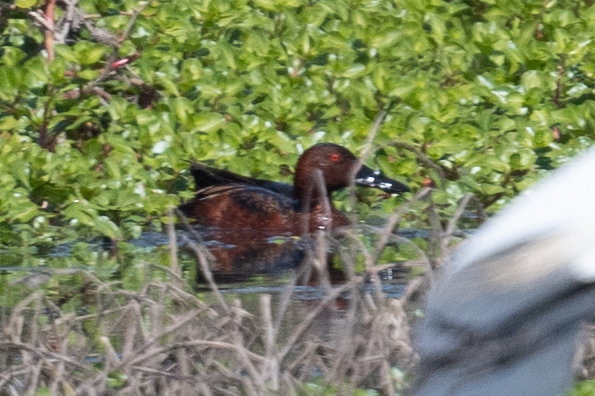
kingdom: Animalia
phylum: Chordata
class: Aves
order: Anseriformes
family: Anatidae
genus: Spatula
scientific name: Spatula cyanoptera
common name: Cinnamon teal
